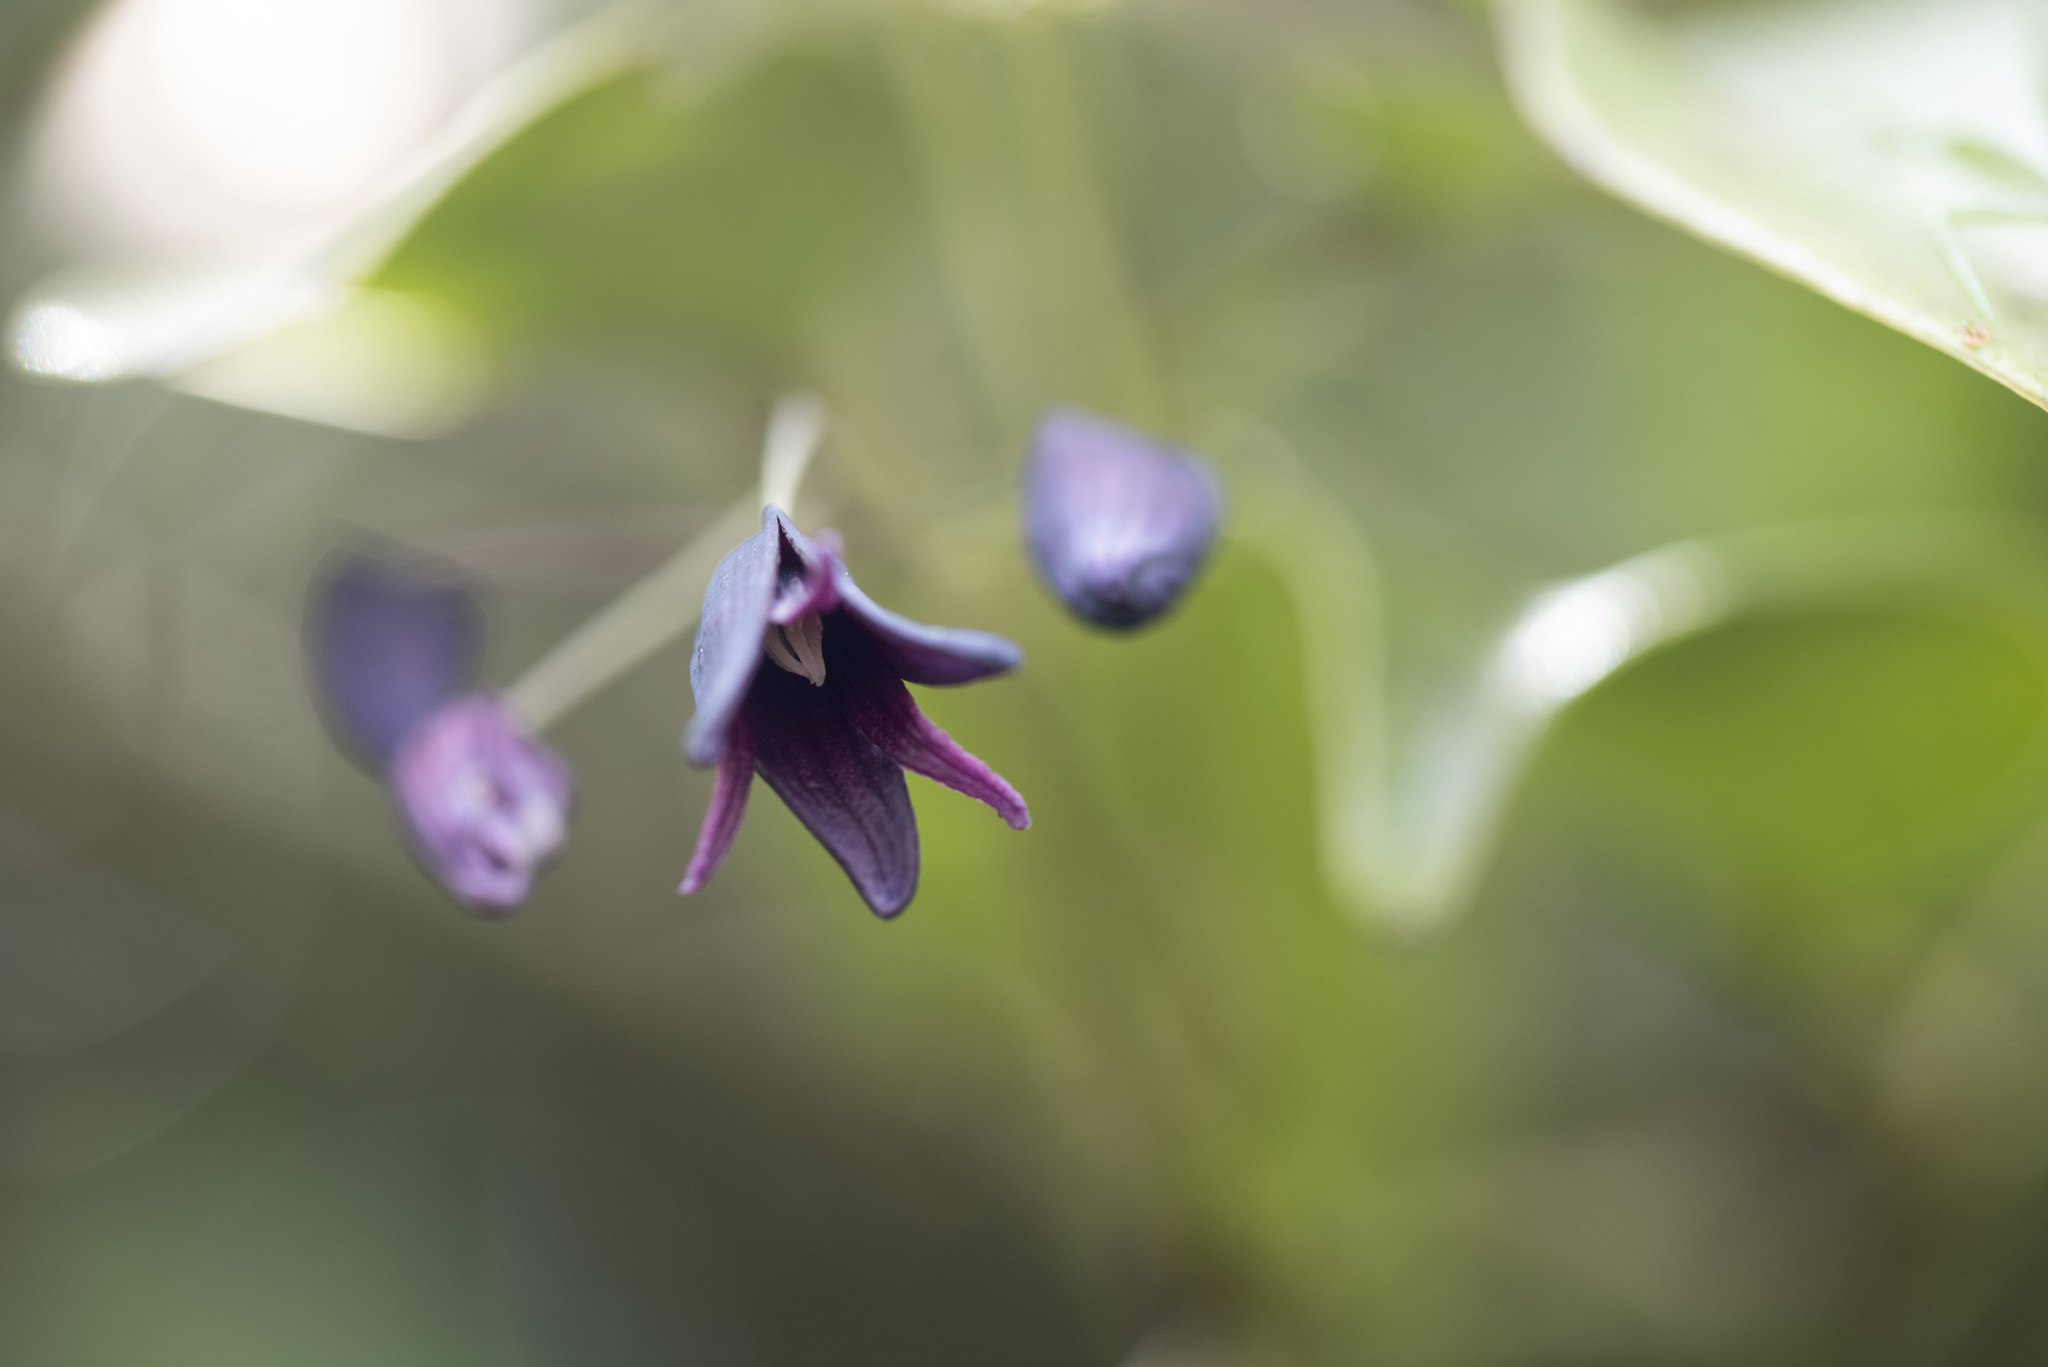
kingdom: Plantae
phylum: Tracheophyta
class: Magnoliopsida
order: Ranunculales
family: Lardizabalaceae
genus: Stauntonia
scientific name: Stauntonia purpurea
